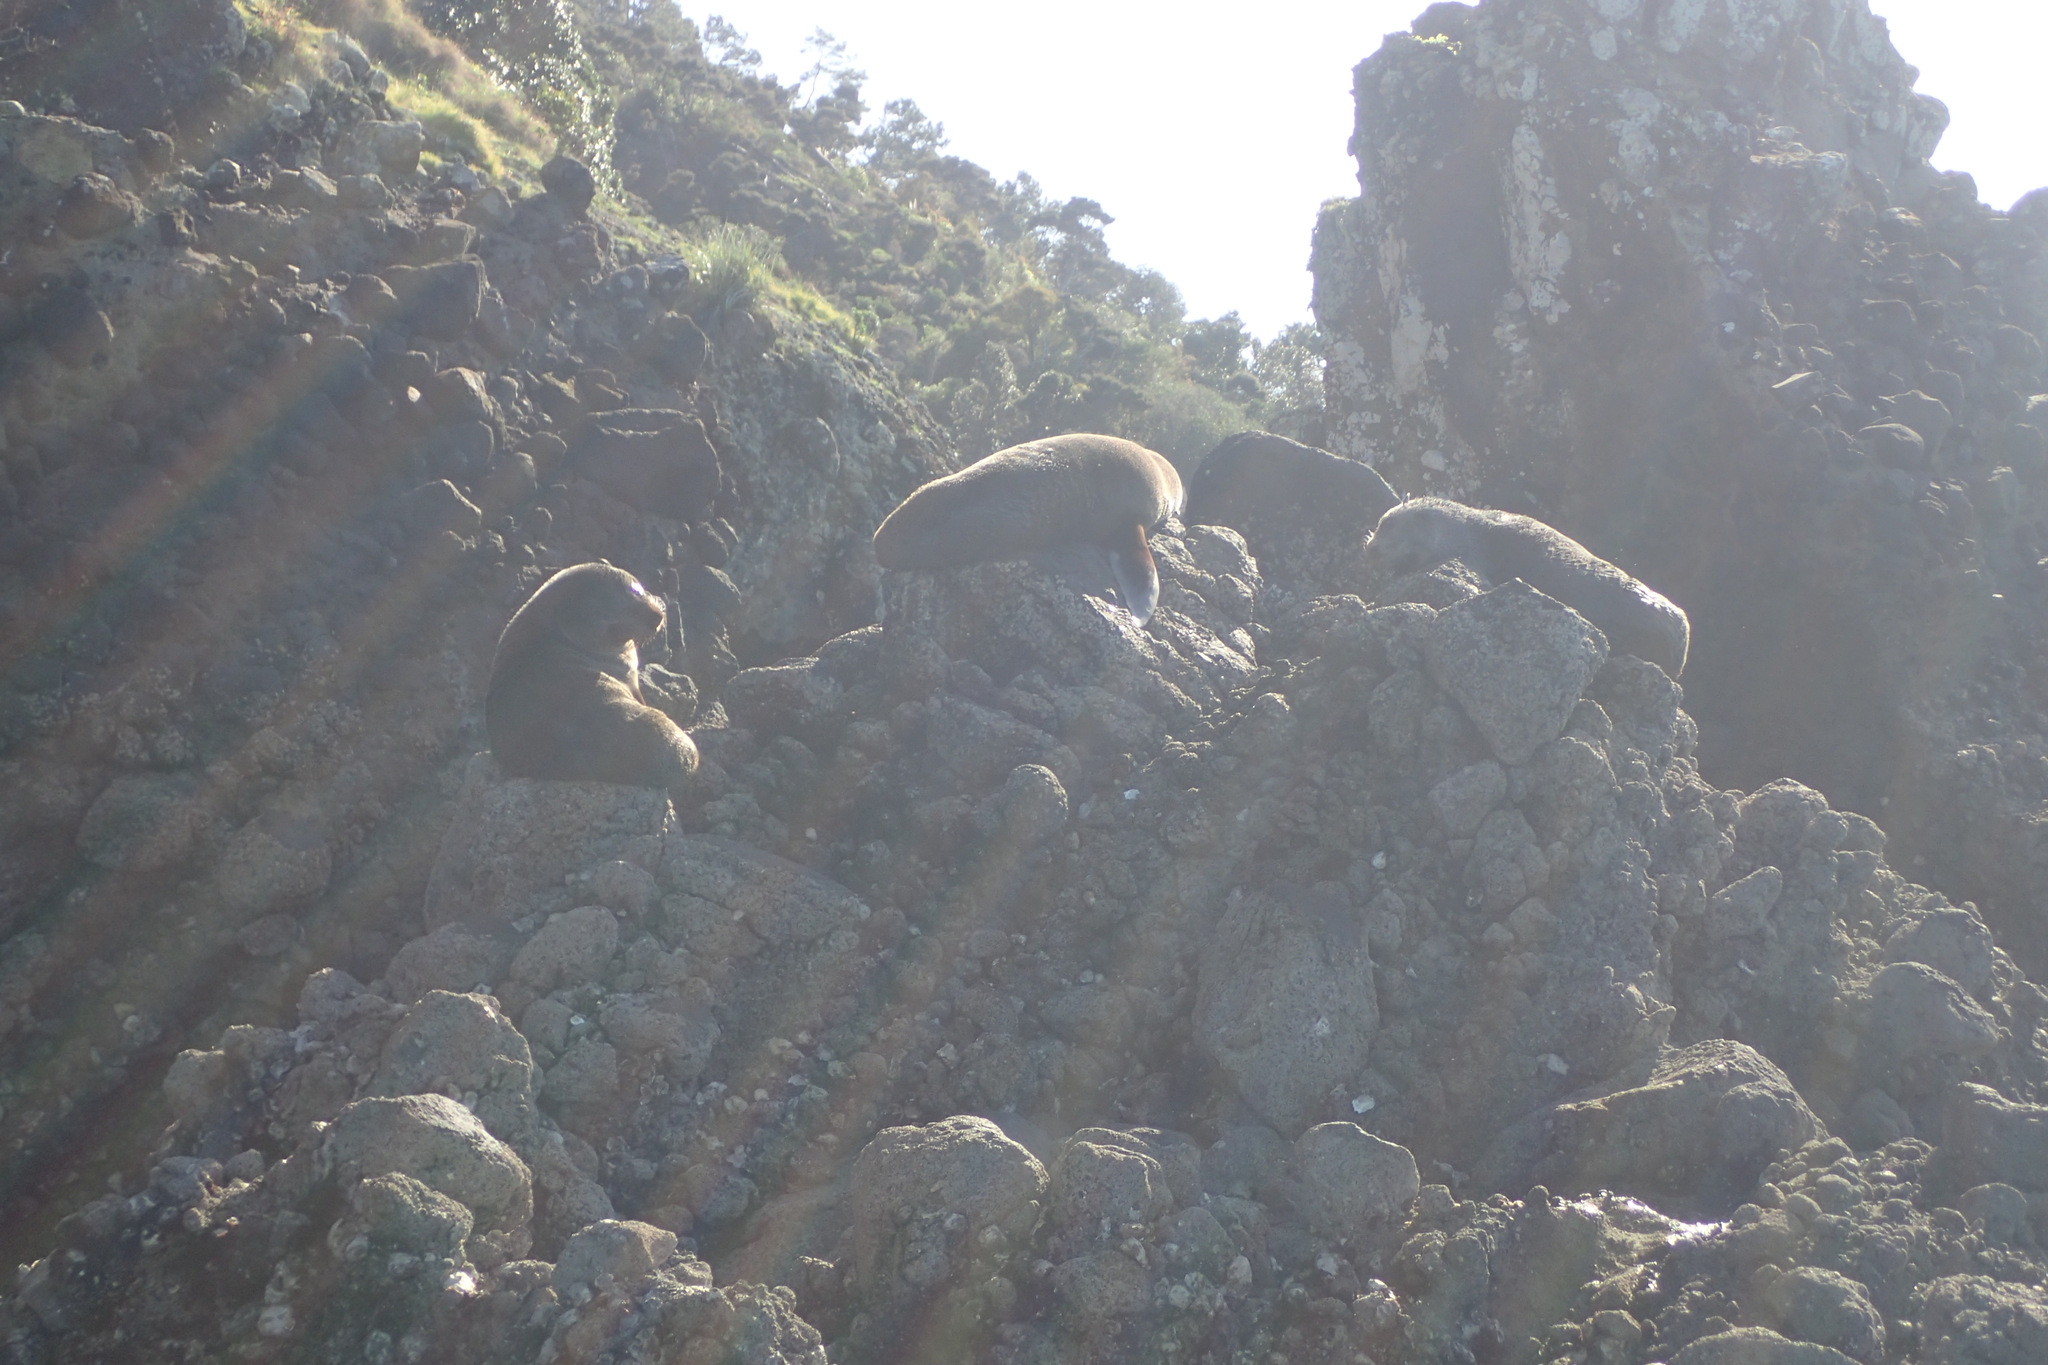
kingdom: Animalia
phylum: Chordata
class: Mammalia
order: Carnivora
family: Otariidae
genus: Arctocephalus
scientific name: Arctocephalus forsteri
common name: New zealand fur seal
